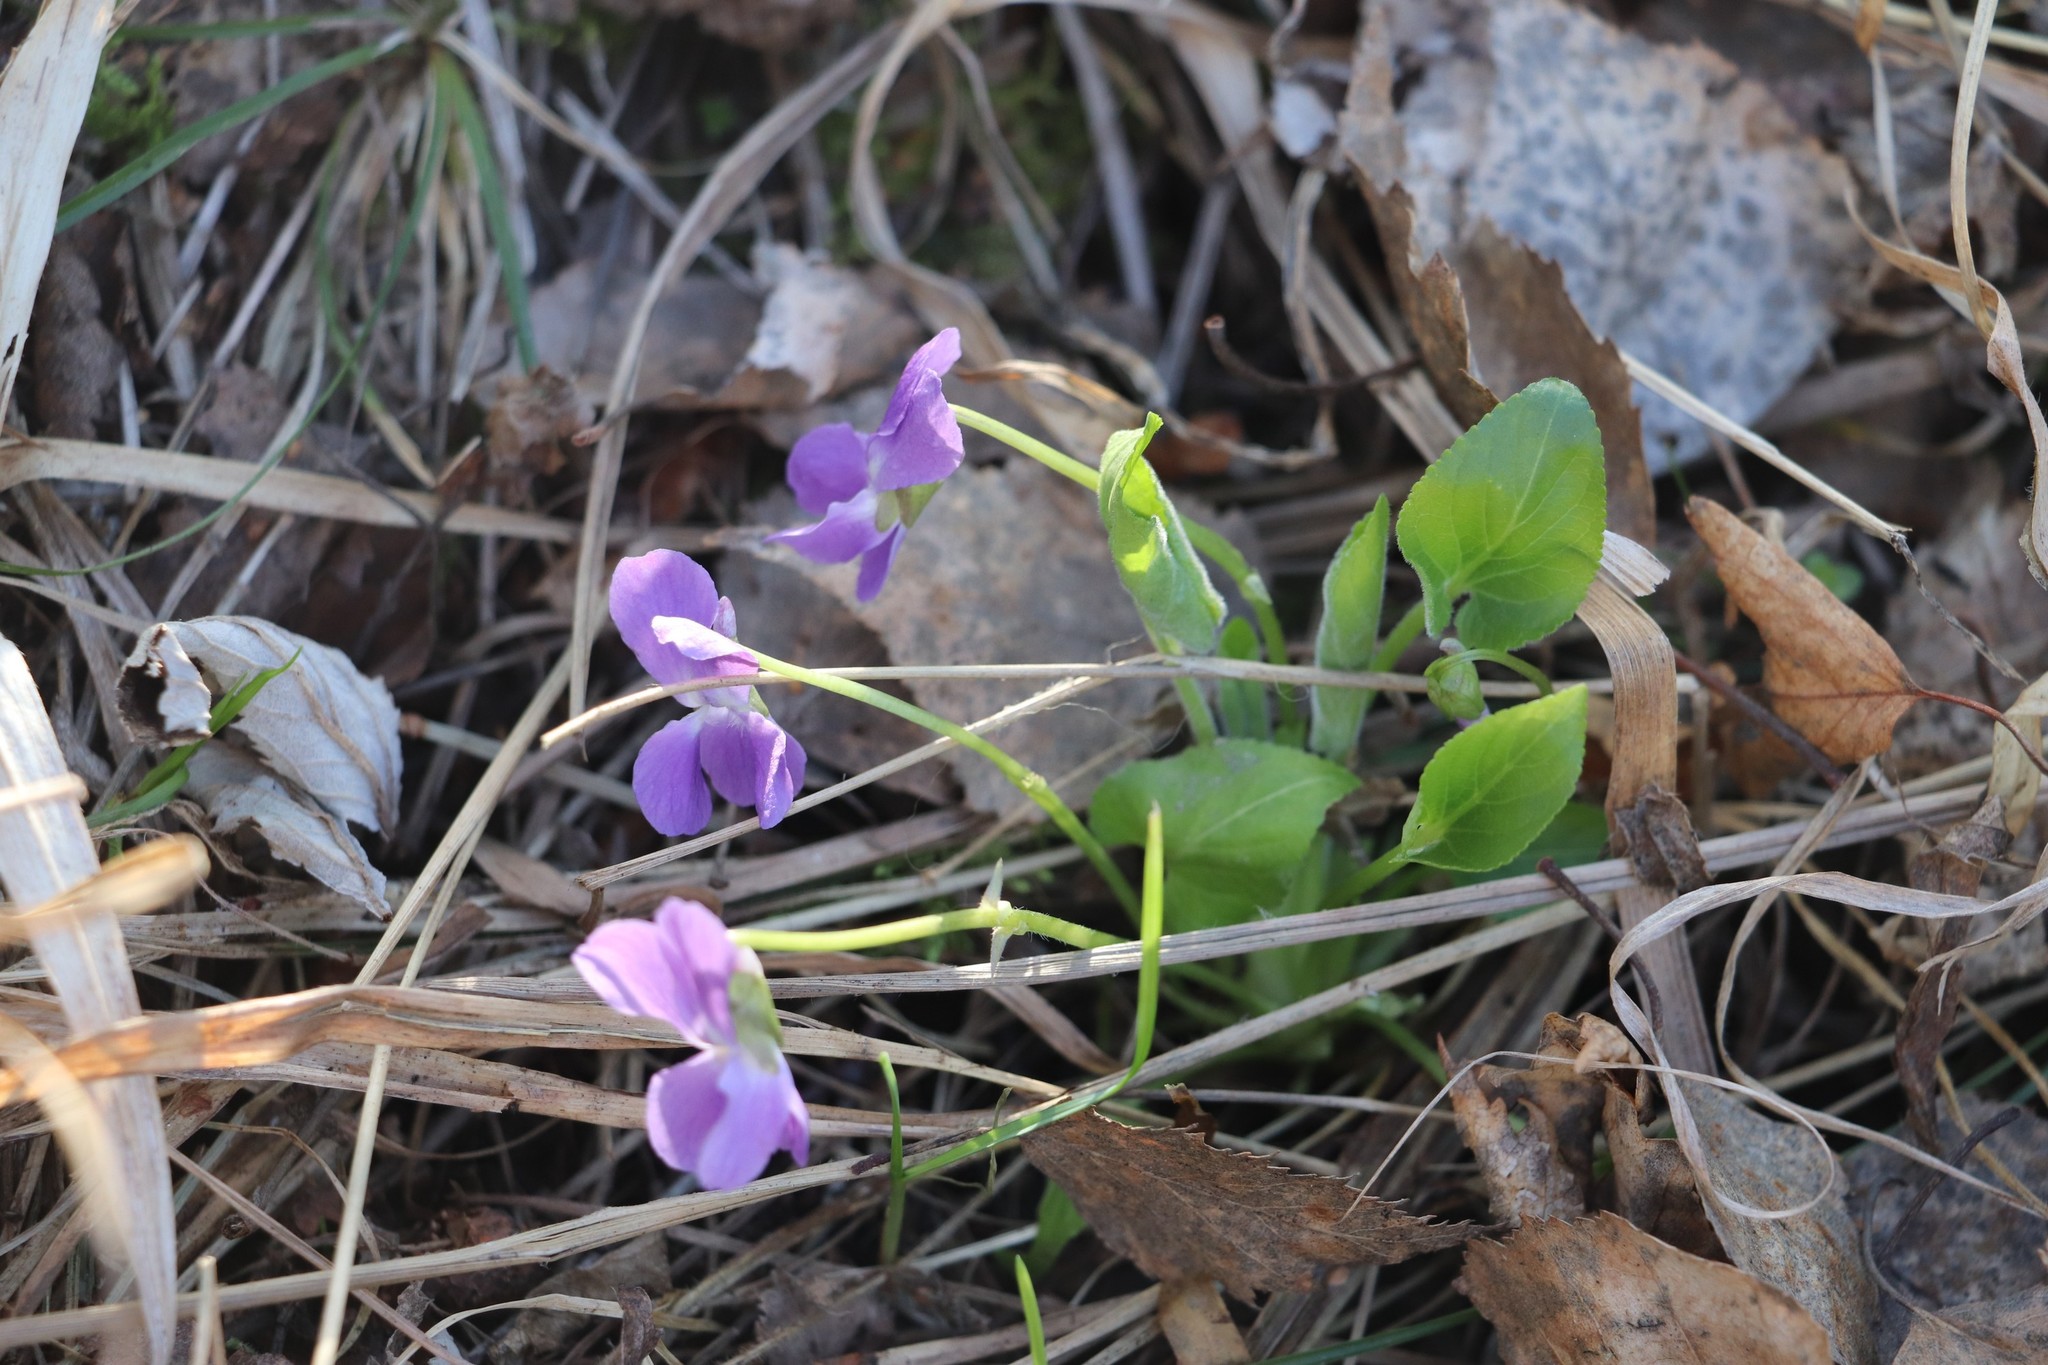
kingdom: Plantae
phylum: Tracheophyta
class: Magnoliopsida
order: Malpighiales
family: Violaceae
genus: Viola
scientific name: Viola hirta
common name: Hairy violet
